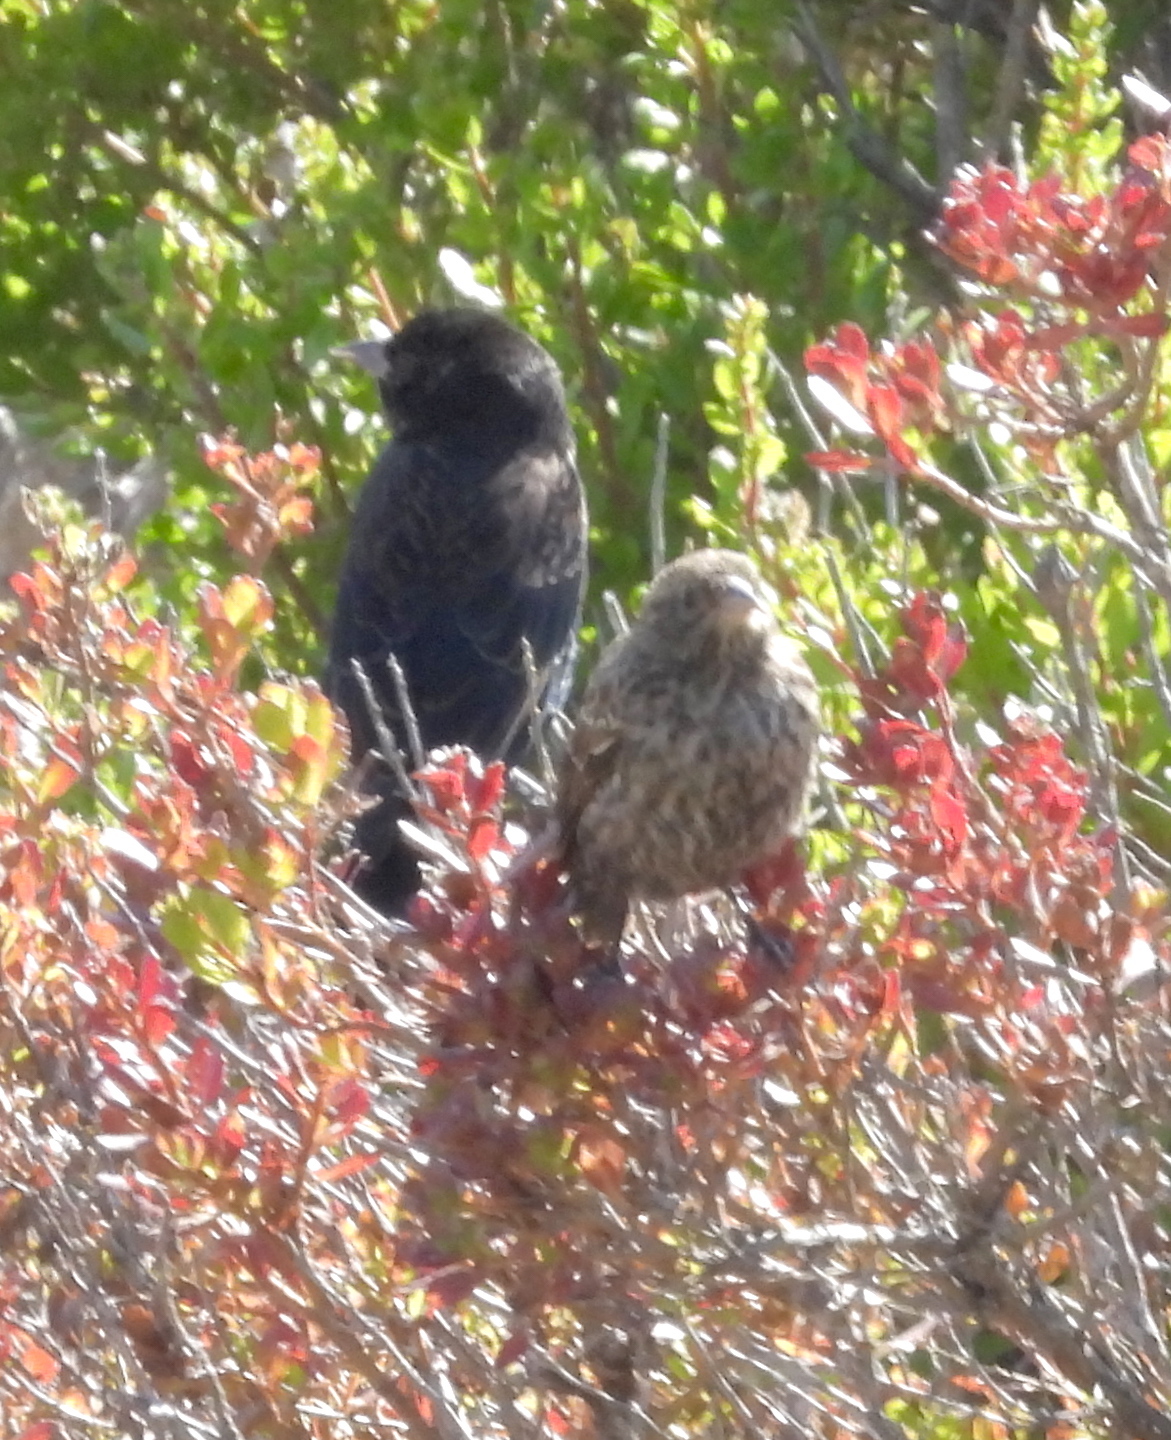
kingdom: Animalia
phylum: Chordata
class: Aves
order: Passeriformes
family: Icteridae
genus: Agelaius
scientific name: Agelaius phoeniceus
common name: Red-winged blackbird
